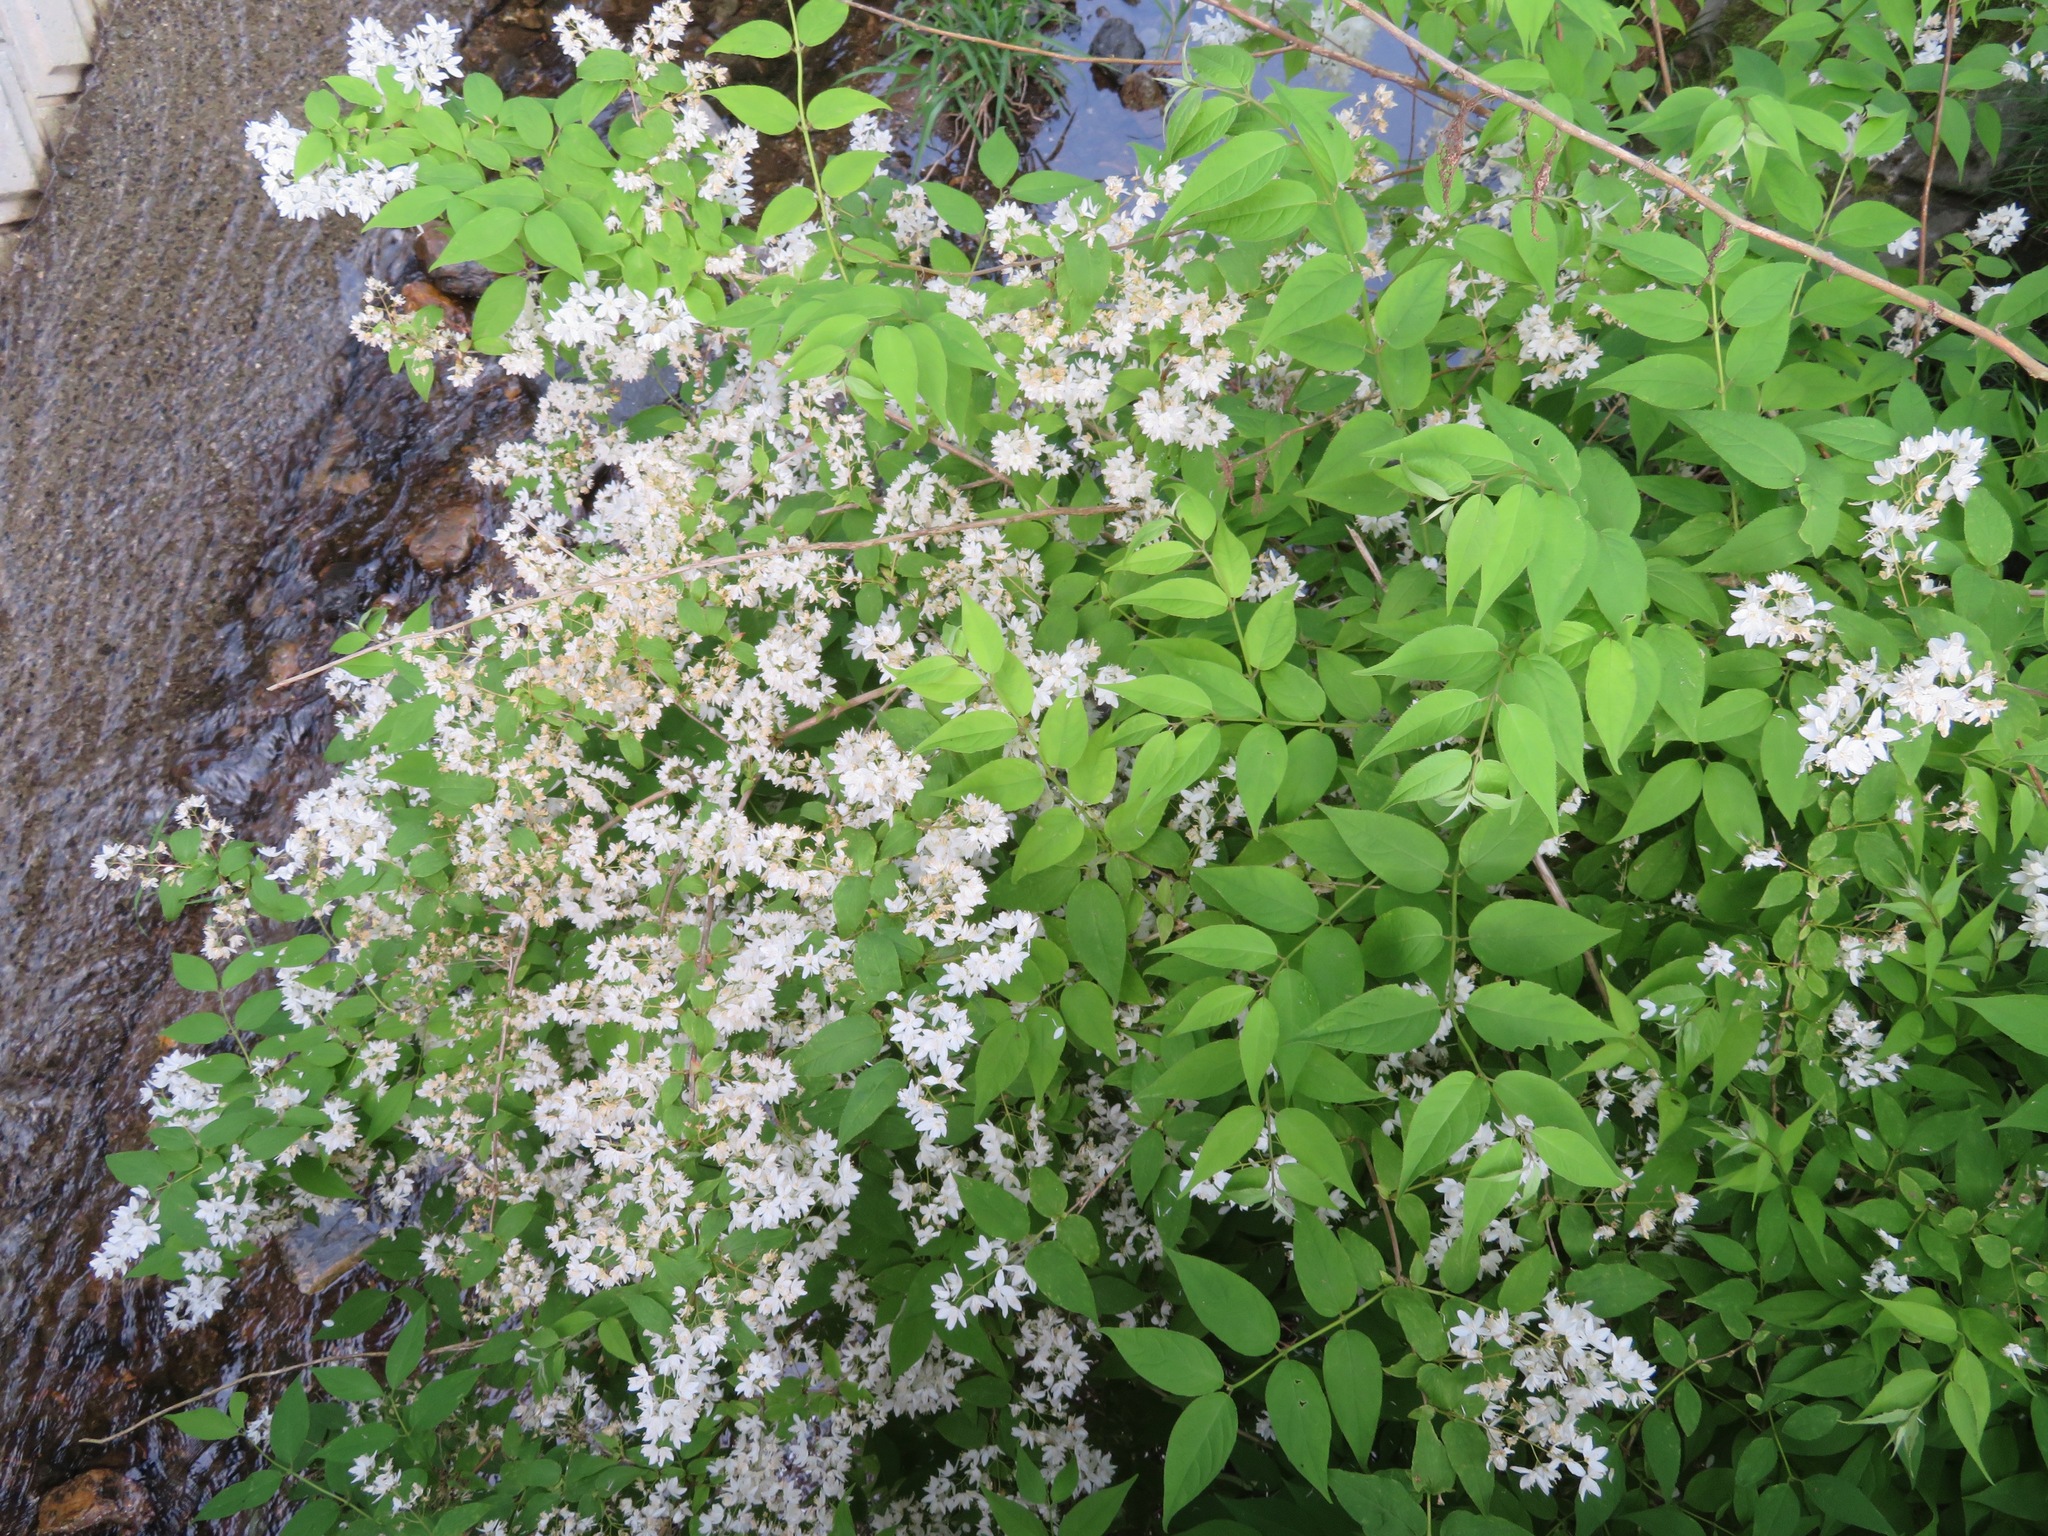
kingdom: Plantae
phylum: Tracheophyta
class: Magnoliopsida
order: Cornales
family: Hydrangeaceae
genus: Deutzia
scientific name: Deutzia gracilis
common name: Slender pride of rochester
